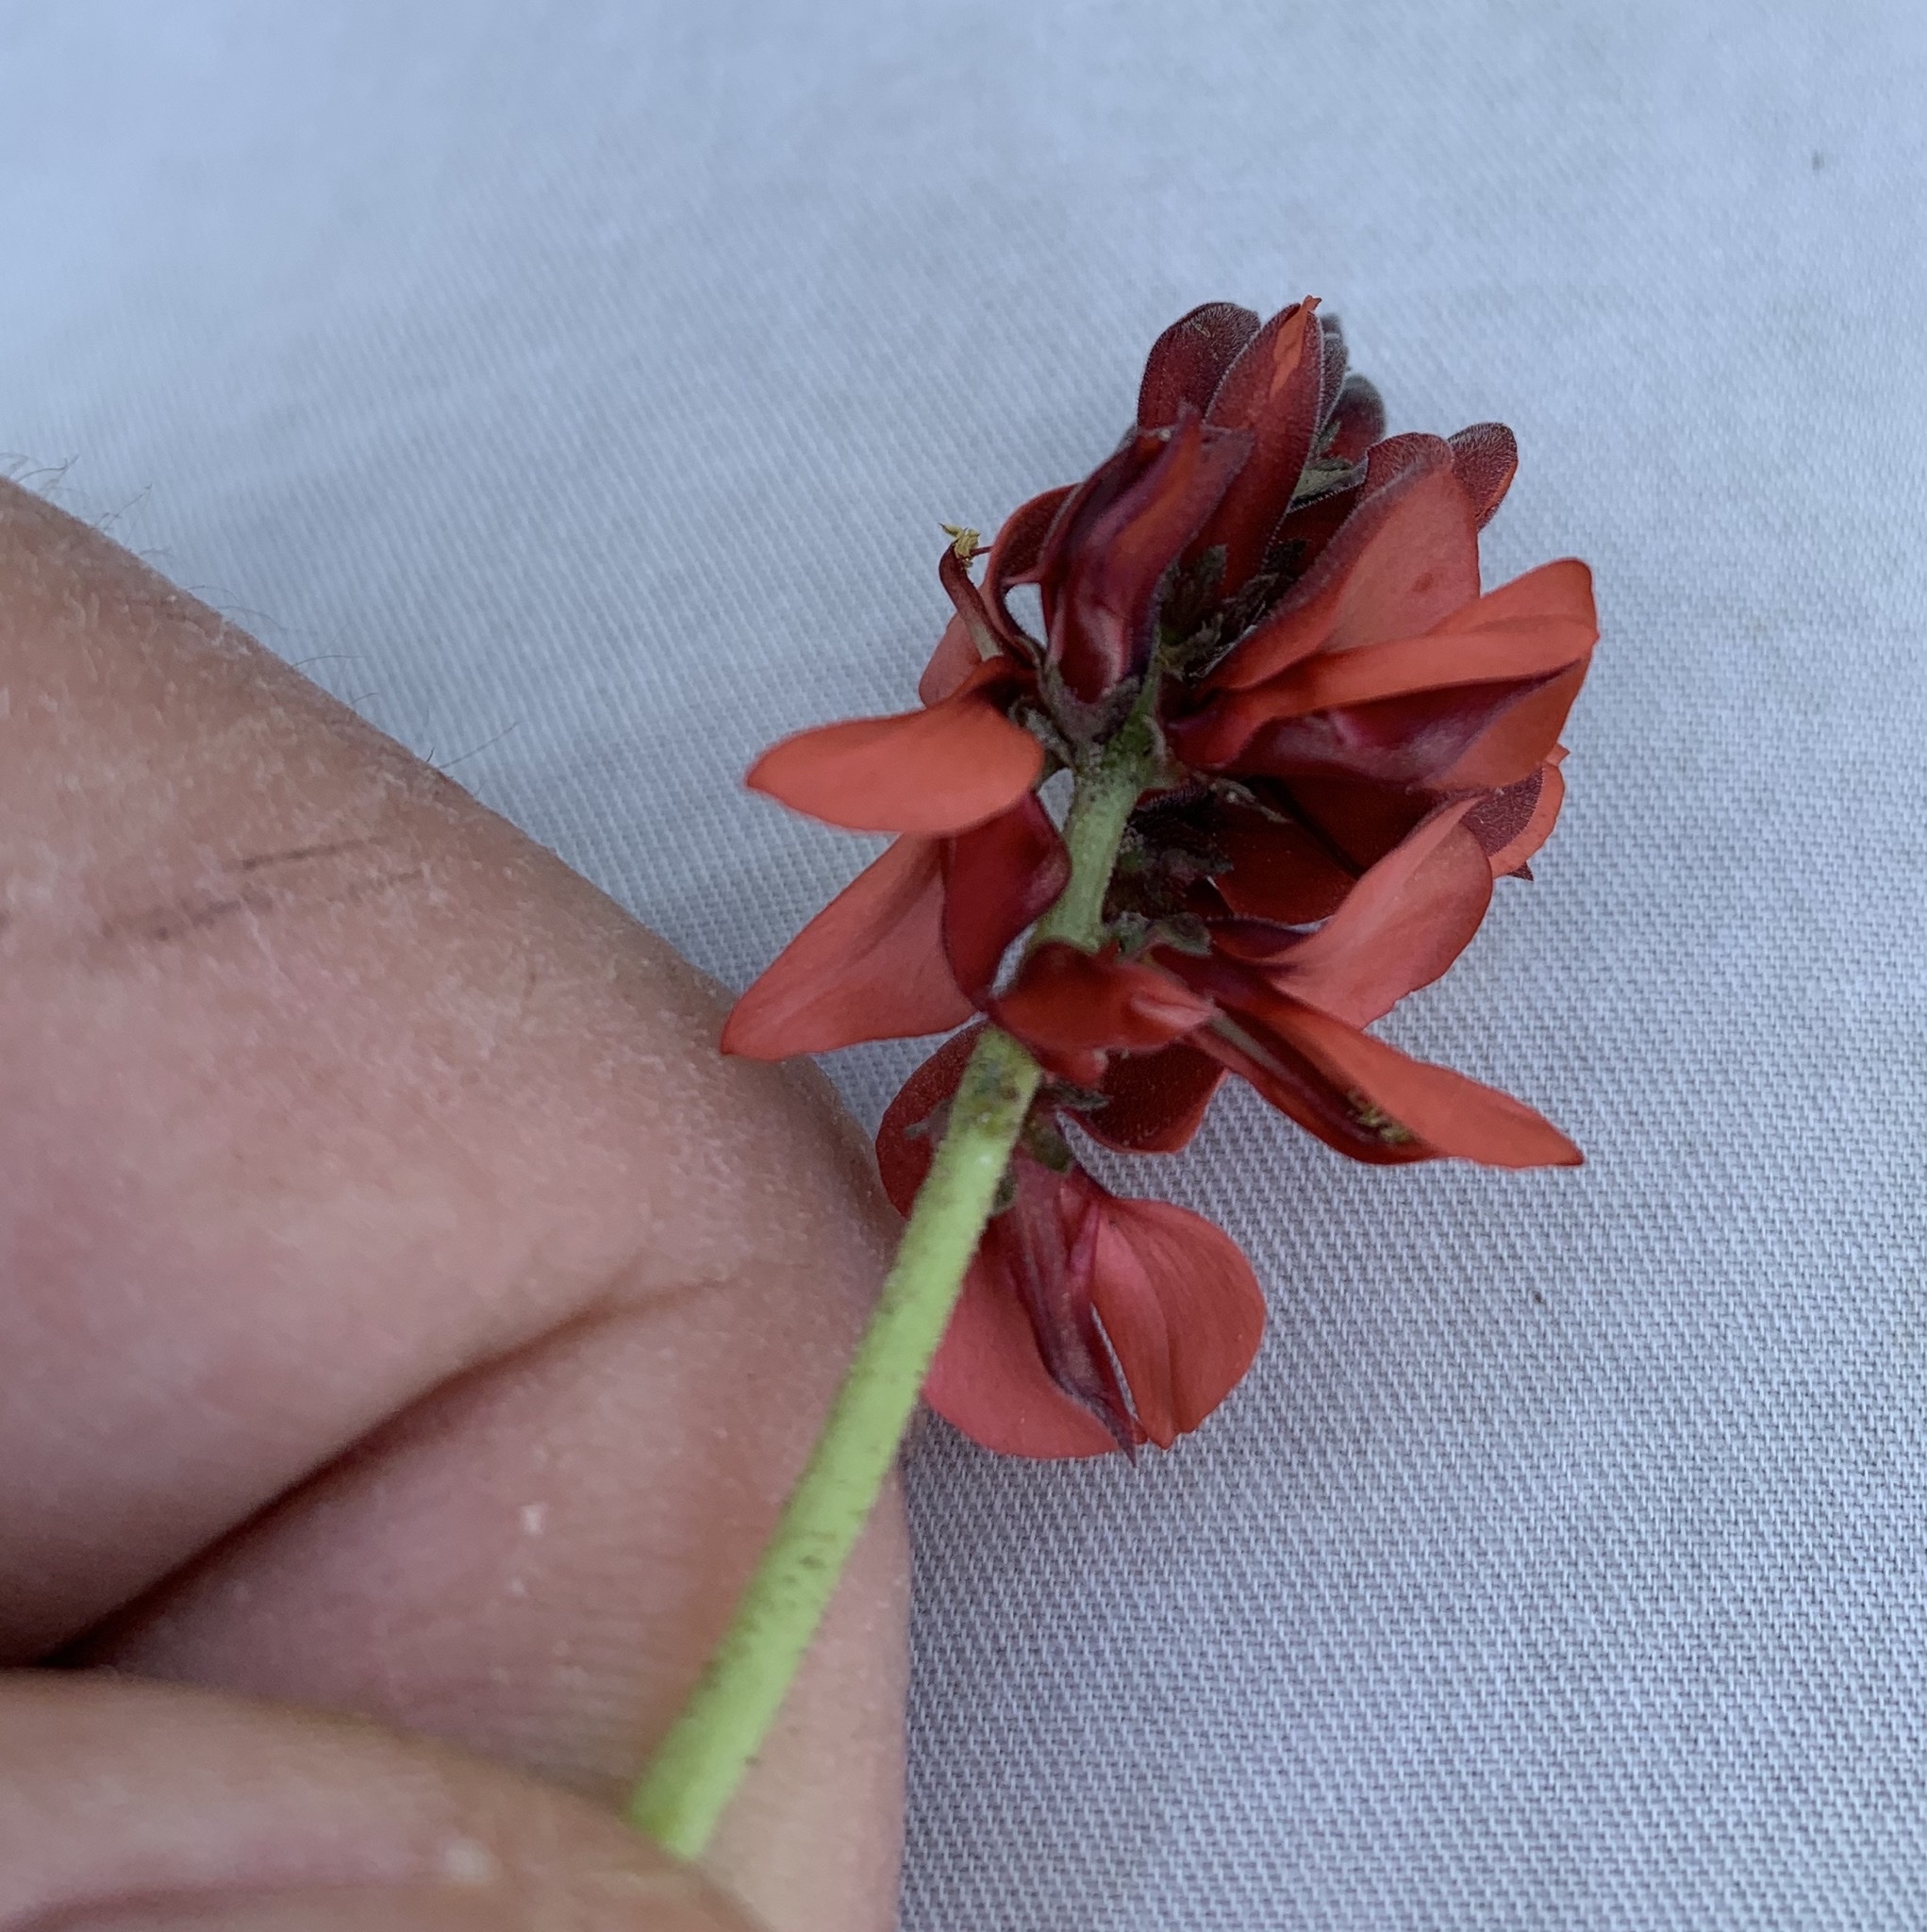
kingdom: Plantae
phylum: Tracheophyta
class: Magnoliopsida
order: Fabales
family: Fabaceae
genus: Indigofera
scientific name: Indigofera procumbens
